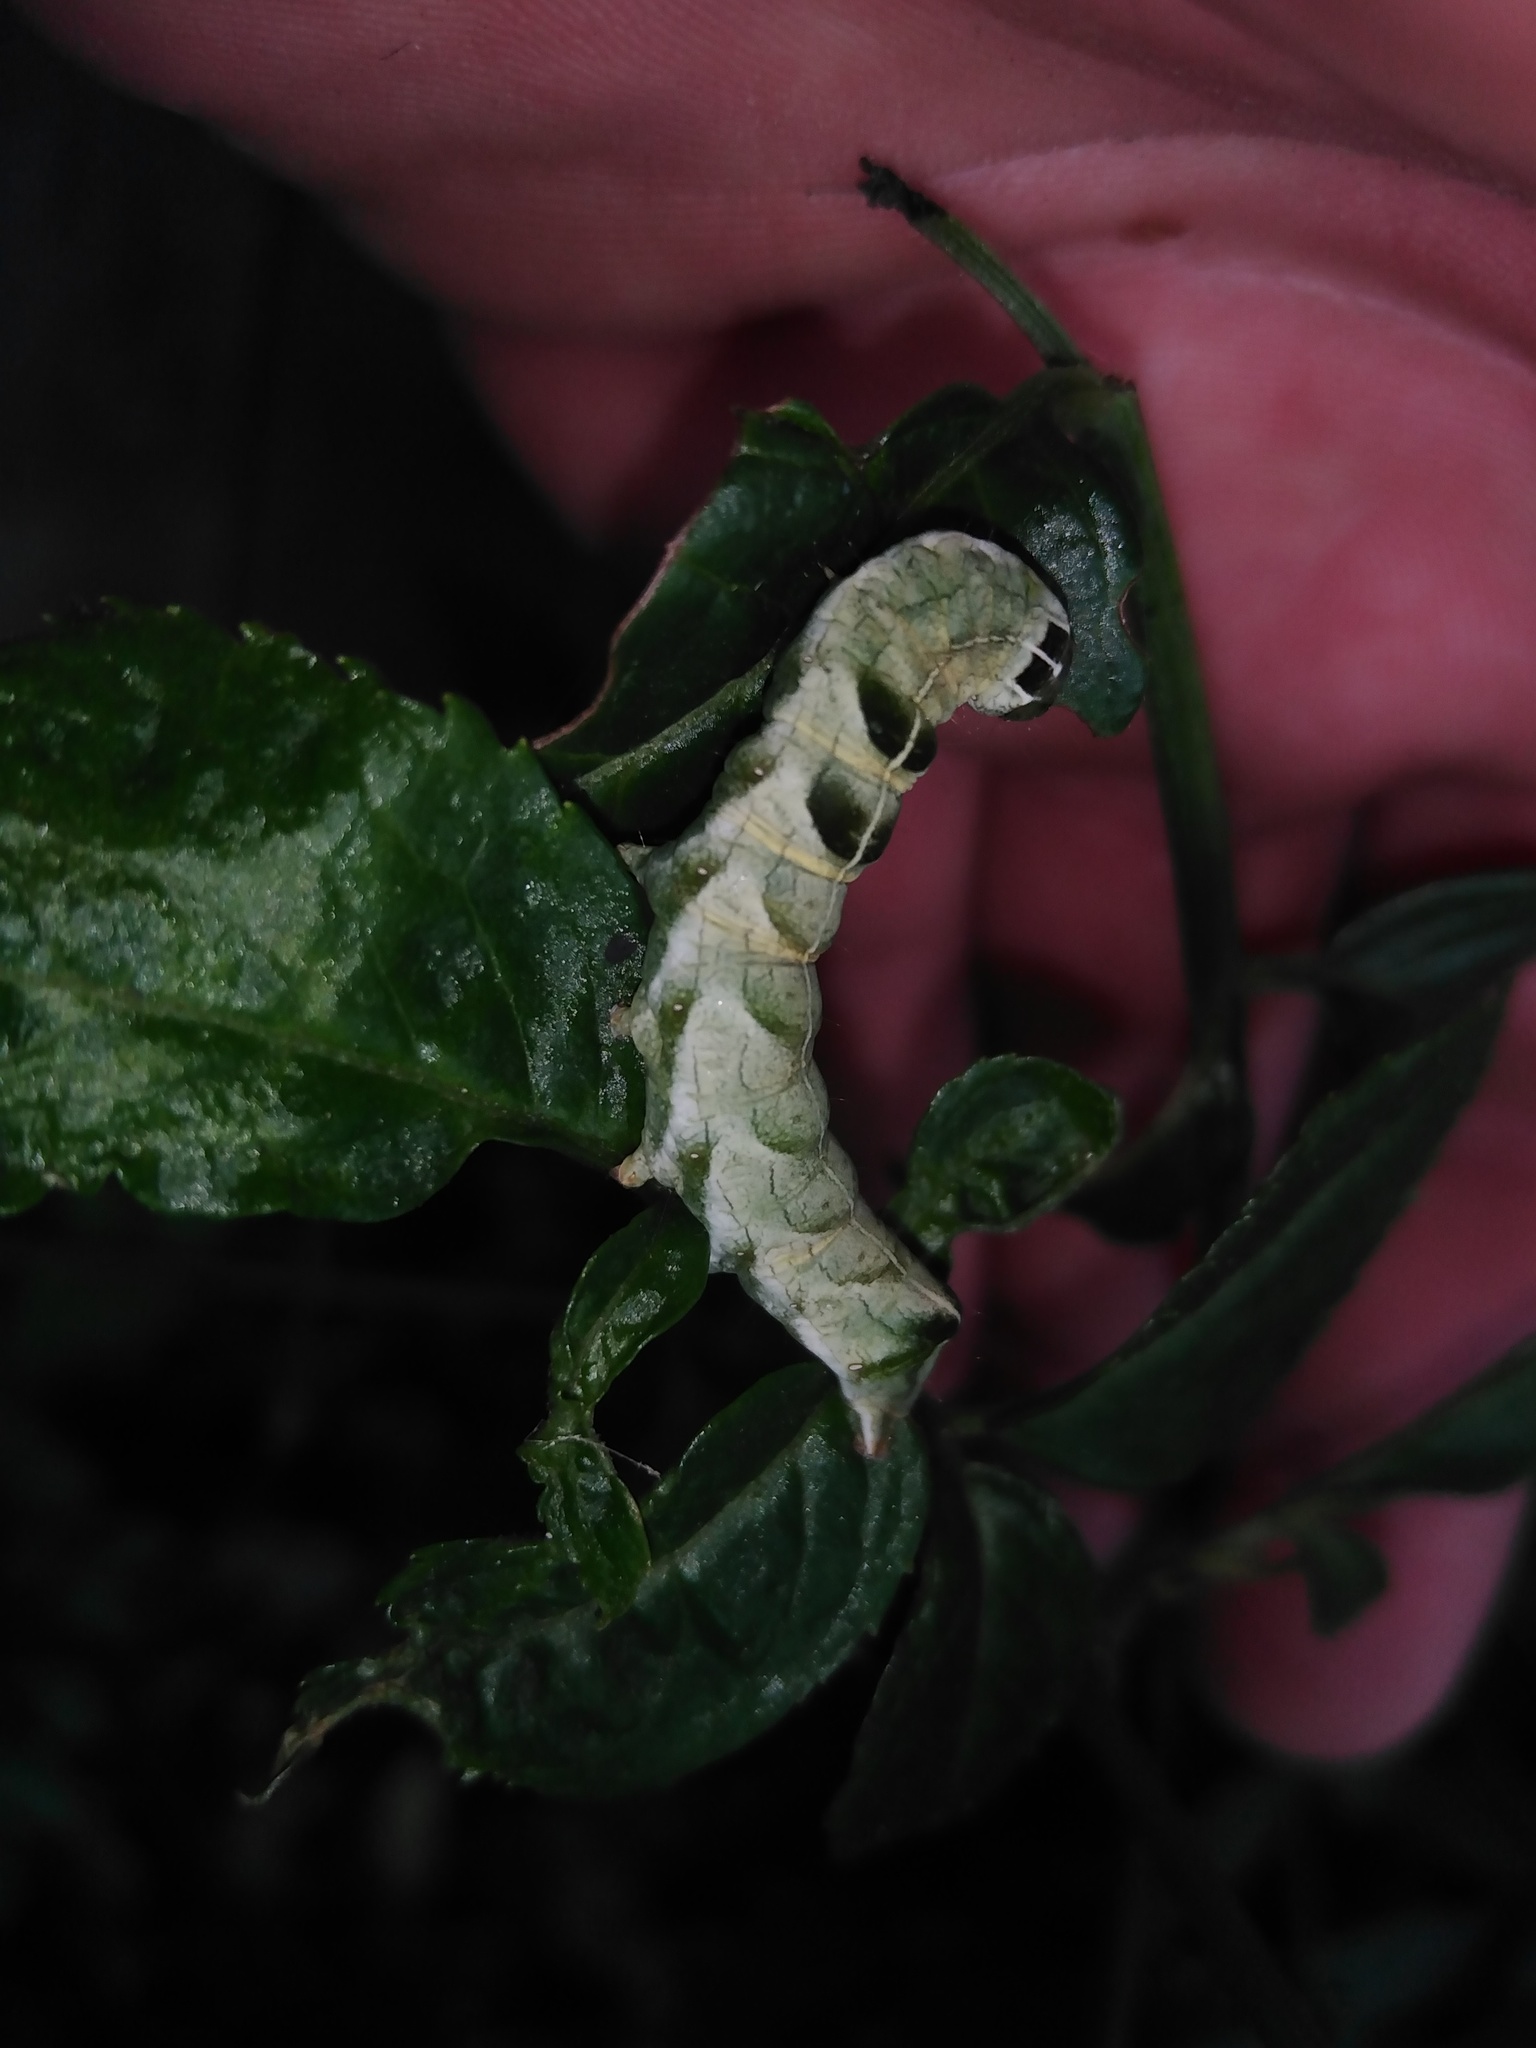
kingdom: Animalia
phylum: Arthropoda
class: Insecta
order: Lepidoptera
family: Noctuidae
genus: Melanchra
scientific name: Melanchra persicariae
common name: Dot moth
